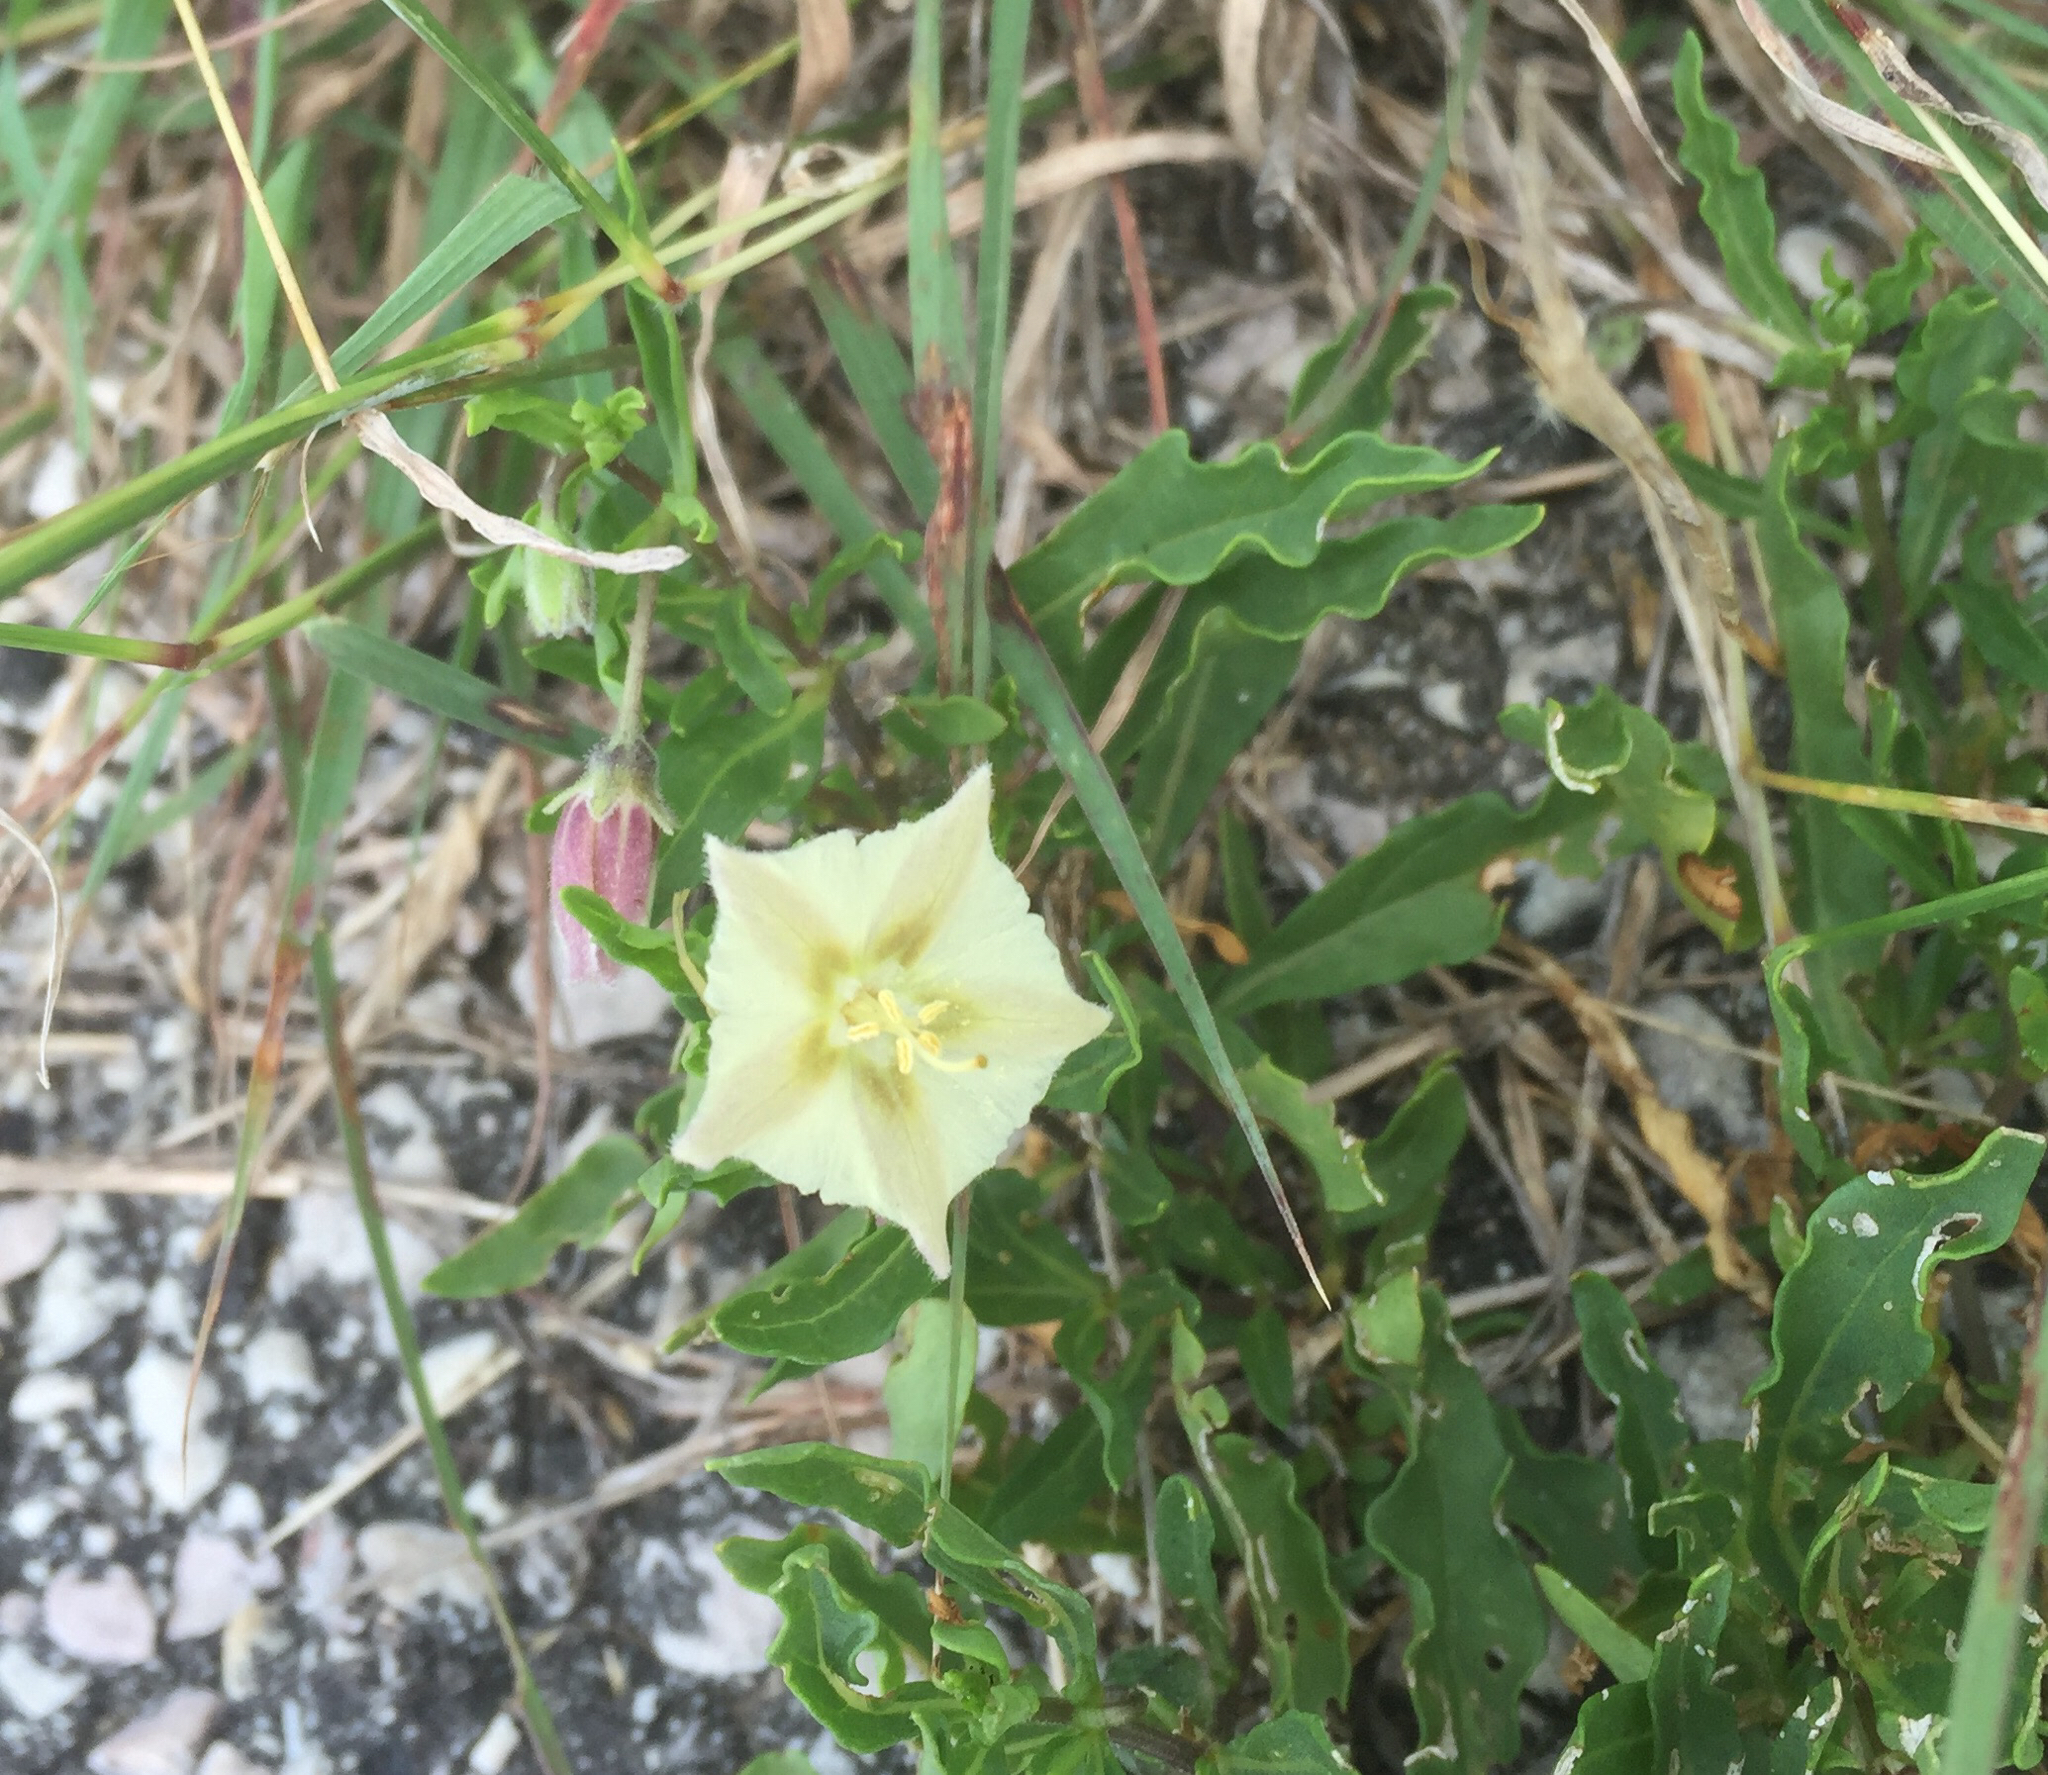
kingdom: Plantae
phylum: Tracheophyta
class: Magnoliopsida
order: Solanales
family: Solanaceae
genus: Chamaesaracha
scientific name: Chamaesaracha edwardsiana
